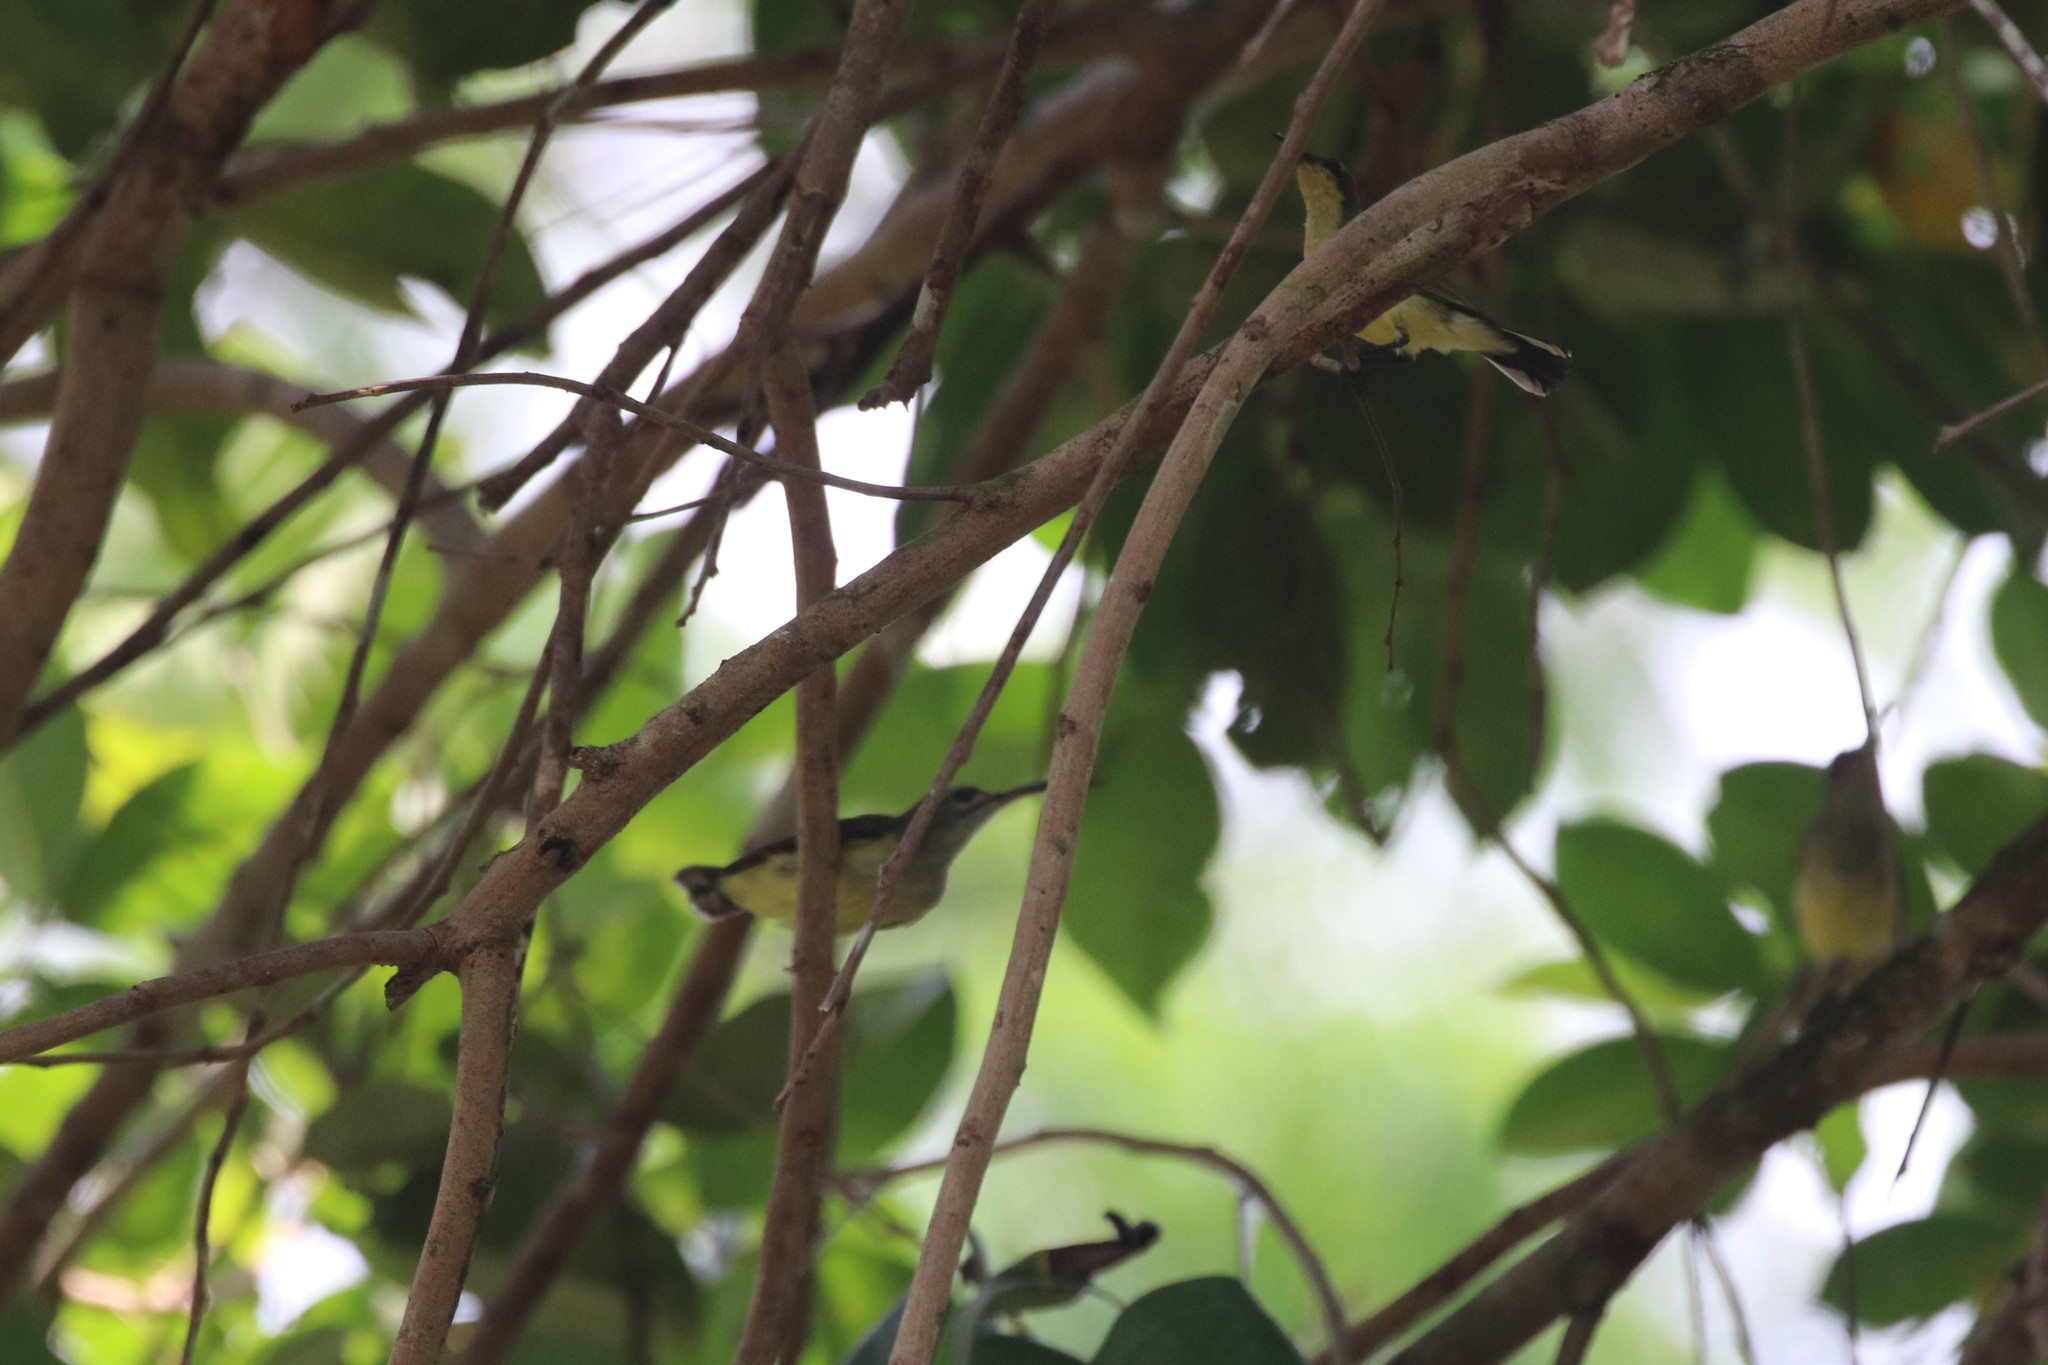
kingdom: Animalia
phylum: Chordata
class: Aves
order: Passeriformes
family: Nectariniidae
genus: Arachnothera
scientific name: Arachnothera longirostra
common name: Little spiderhunter
